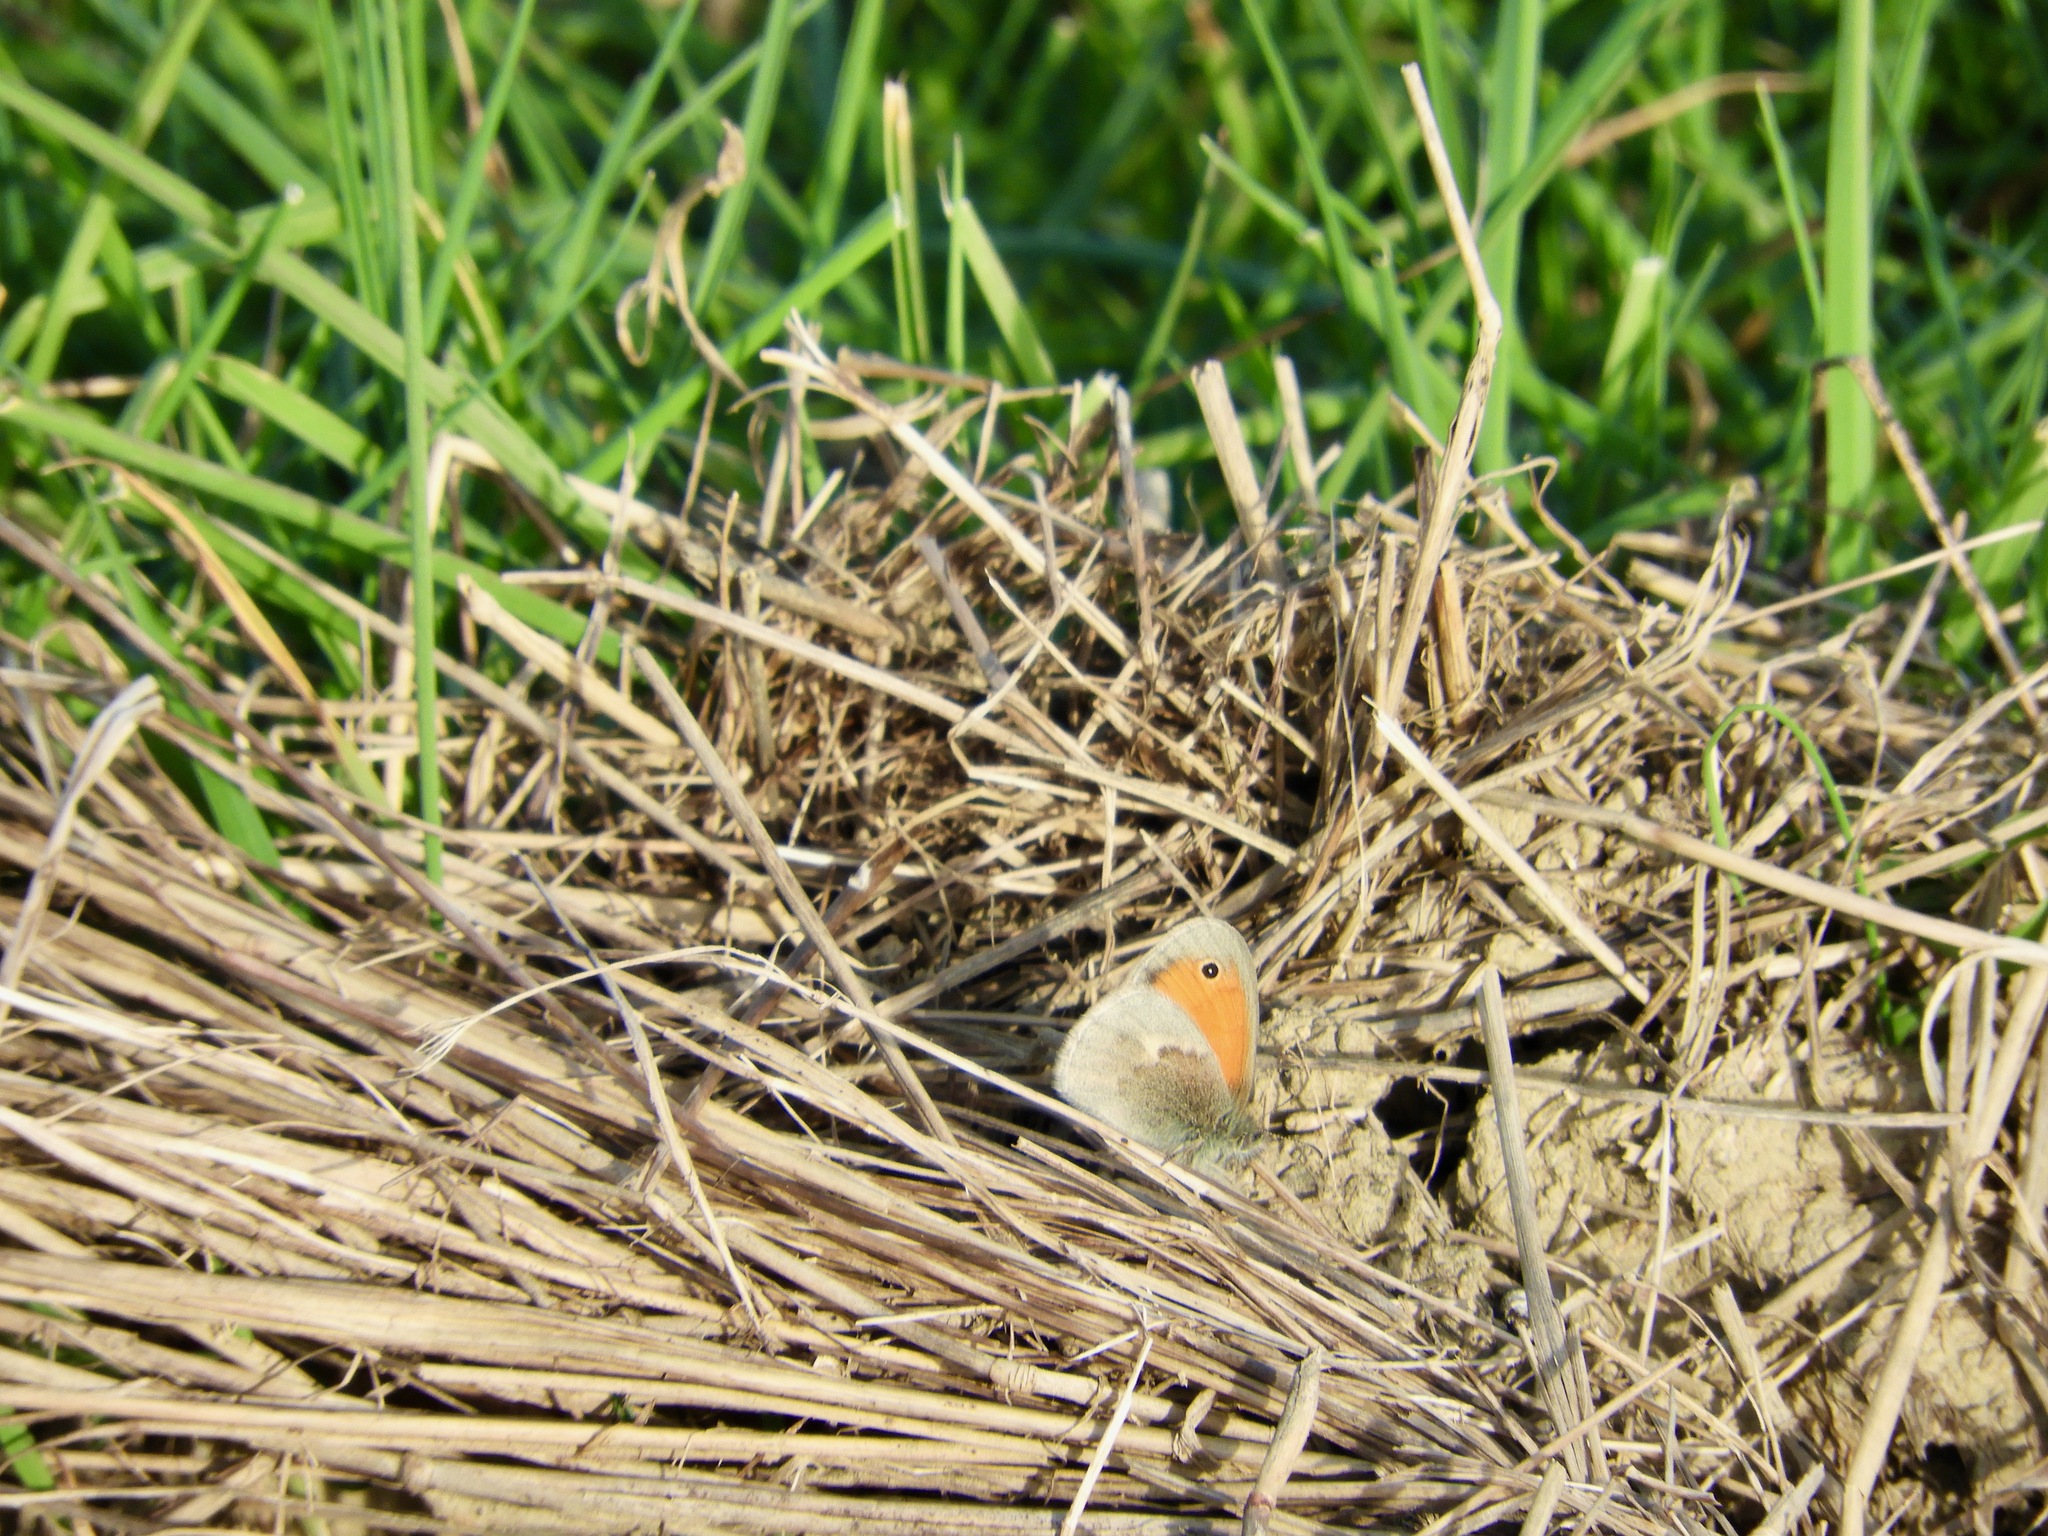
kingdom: Animalia
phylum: Arthropoda
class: Insecta
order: Lepidoptera
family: Nymphalidae
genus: Coenonympha
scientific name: Coenonympha pamphilus
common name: Small heath
